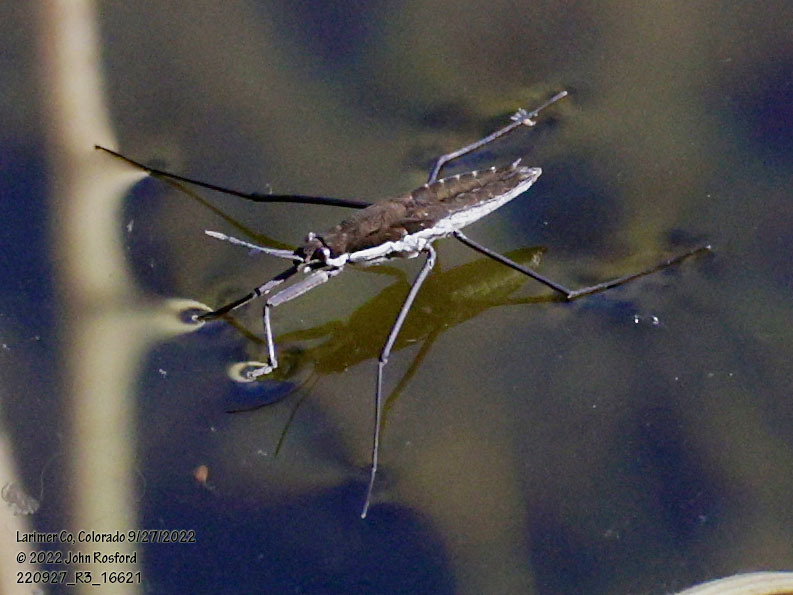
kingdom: Animalia
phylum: Arthropoda
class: Insecta
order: Hemiptera
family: Gerridae
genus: Aquarius
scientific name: Aquarius remigis
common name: Common water strider
